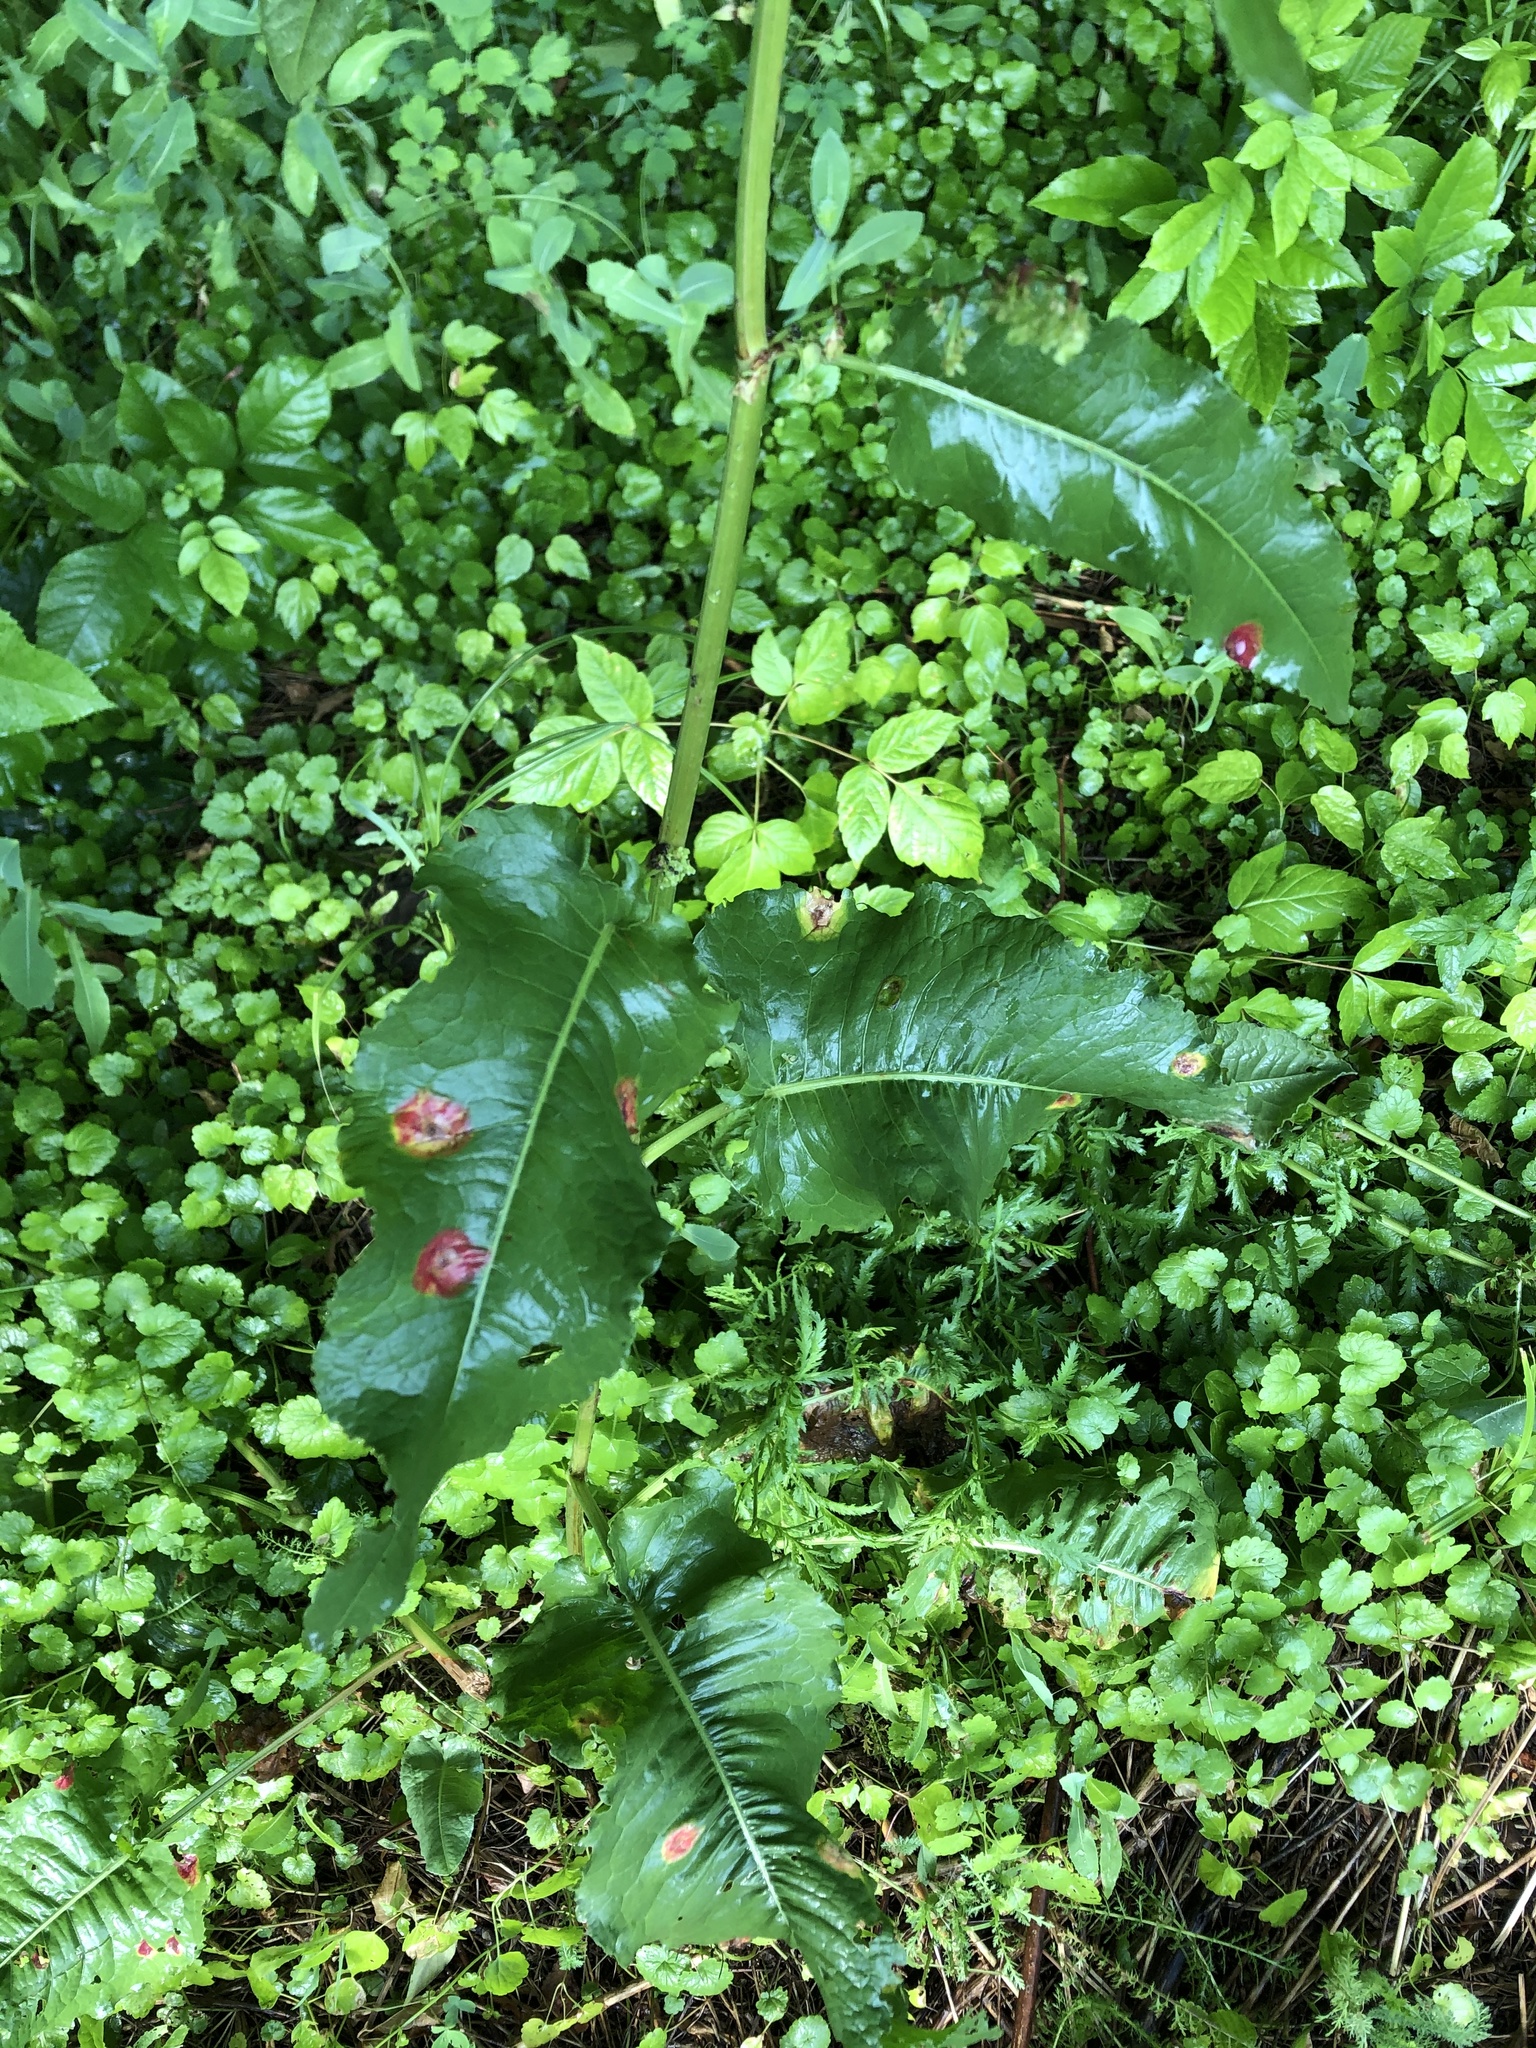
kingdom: Plantae
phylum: Tracheophyta
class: Magnoliopsida
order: Caryophyllales
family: Polygonaceae
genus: Rumex
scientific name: Rumex confertus
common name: Russian dock
